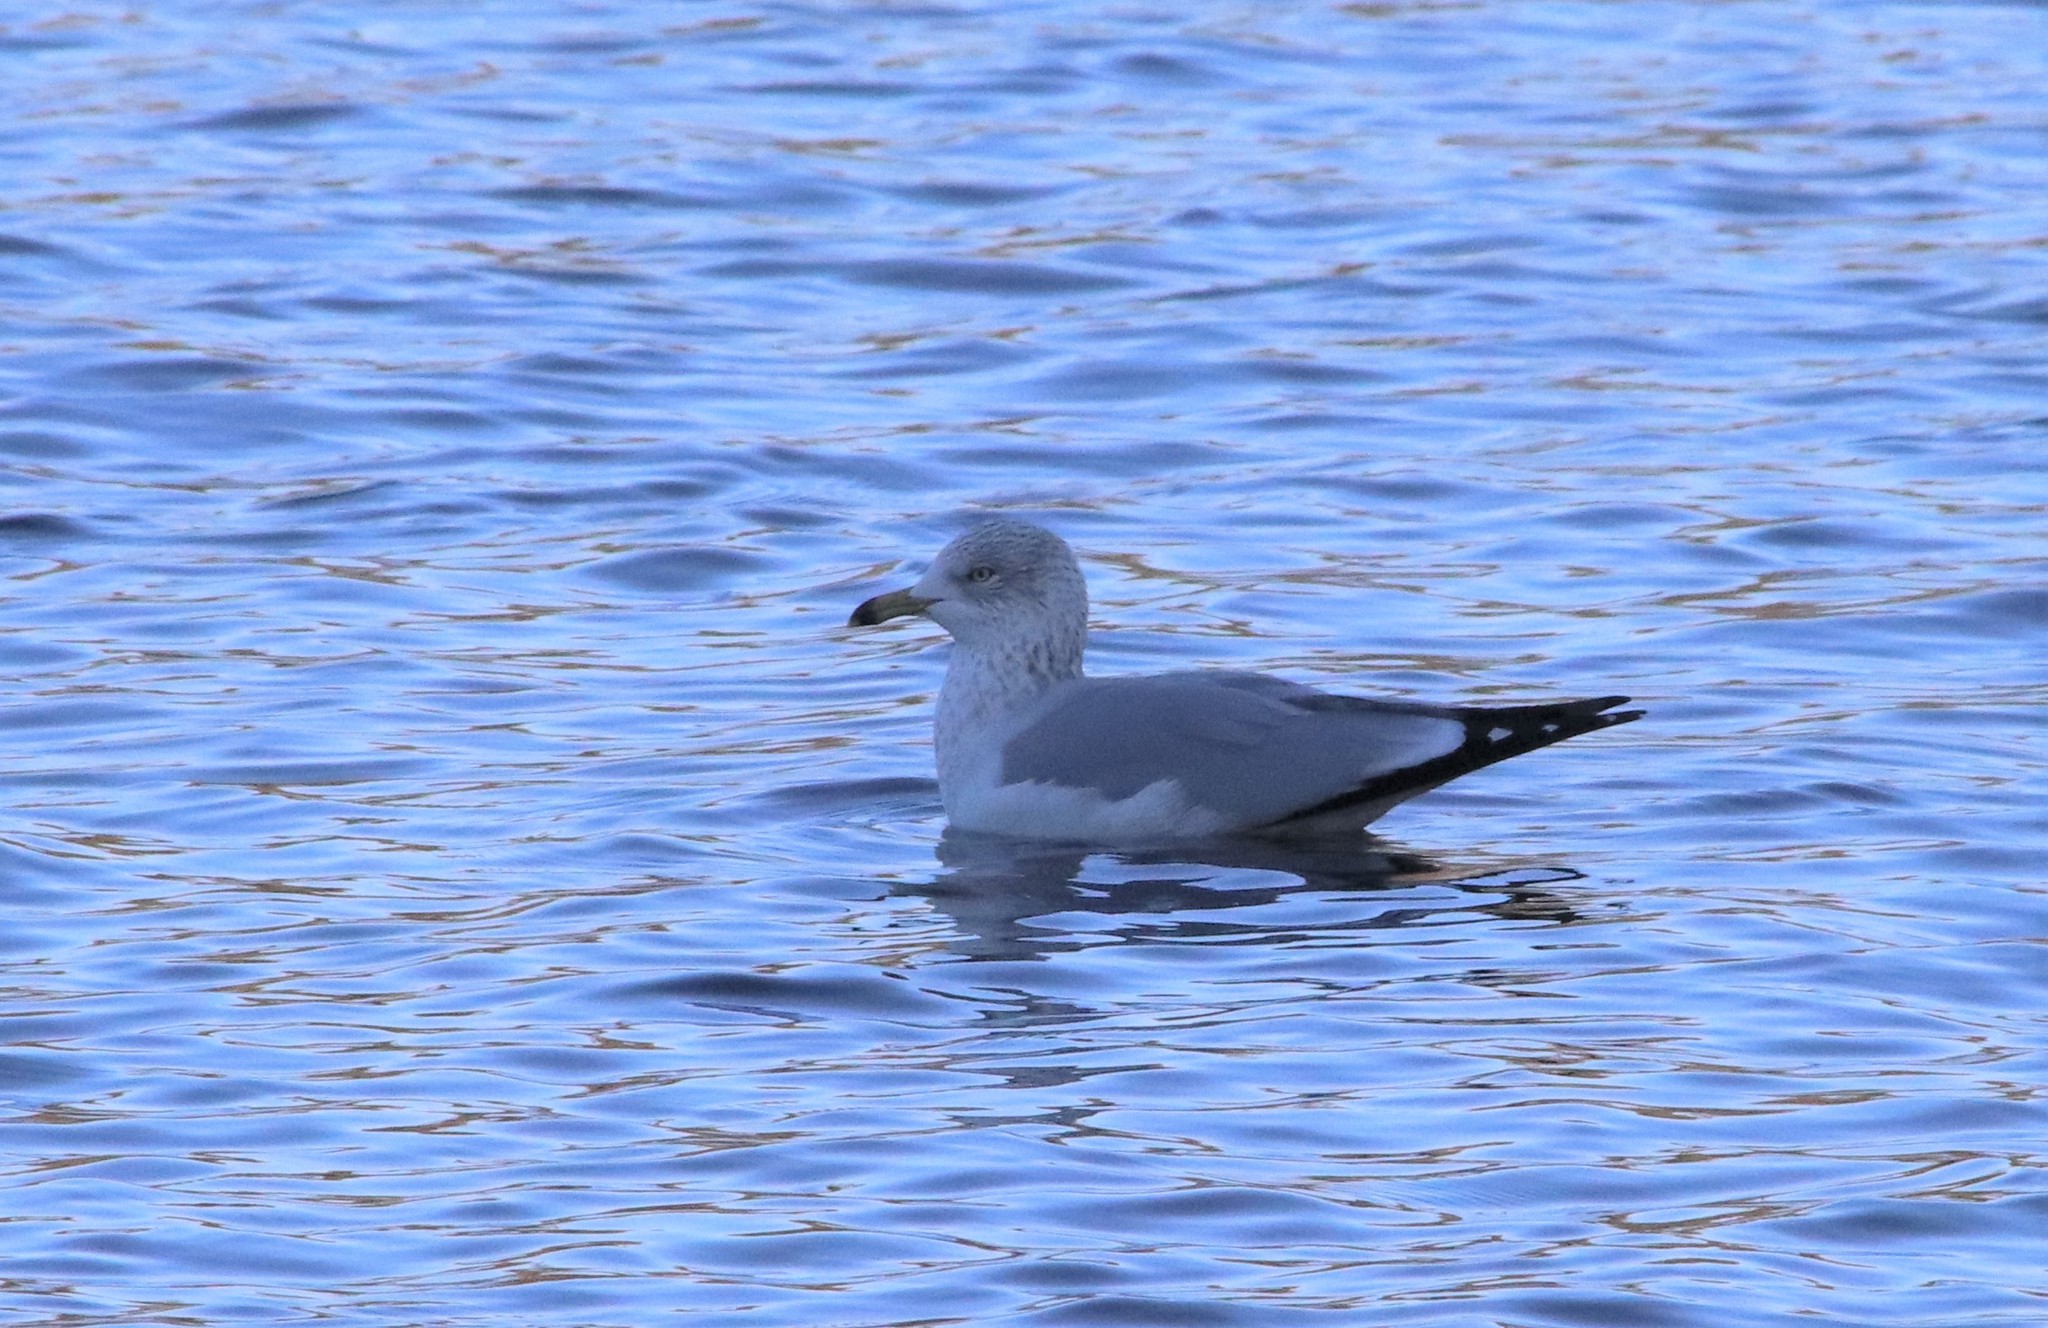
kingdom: Animalia
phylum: Chordata
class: Aves
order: Charadriiformes
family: Laridae
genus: Larus
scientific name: Larus delawarensis
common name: Ring-billed gull
